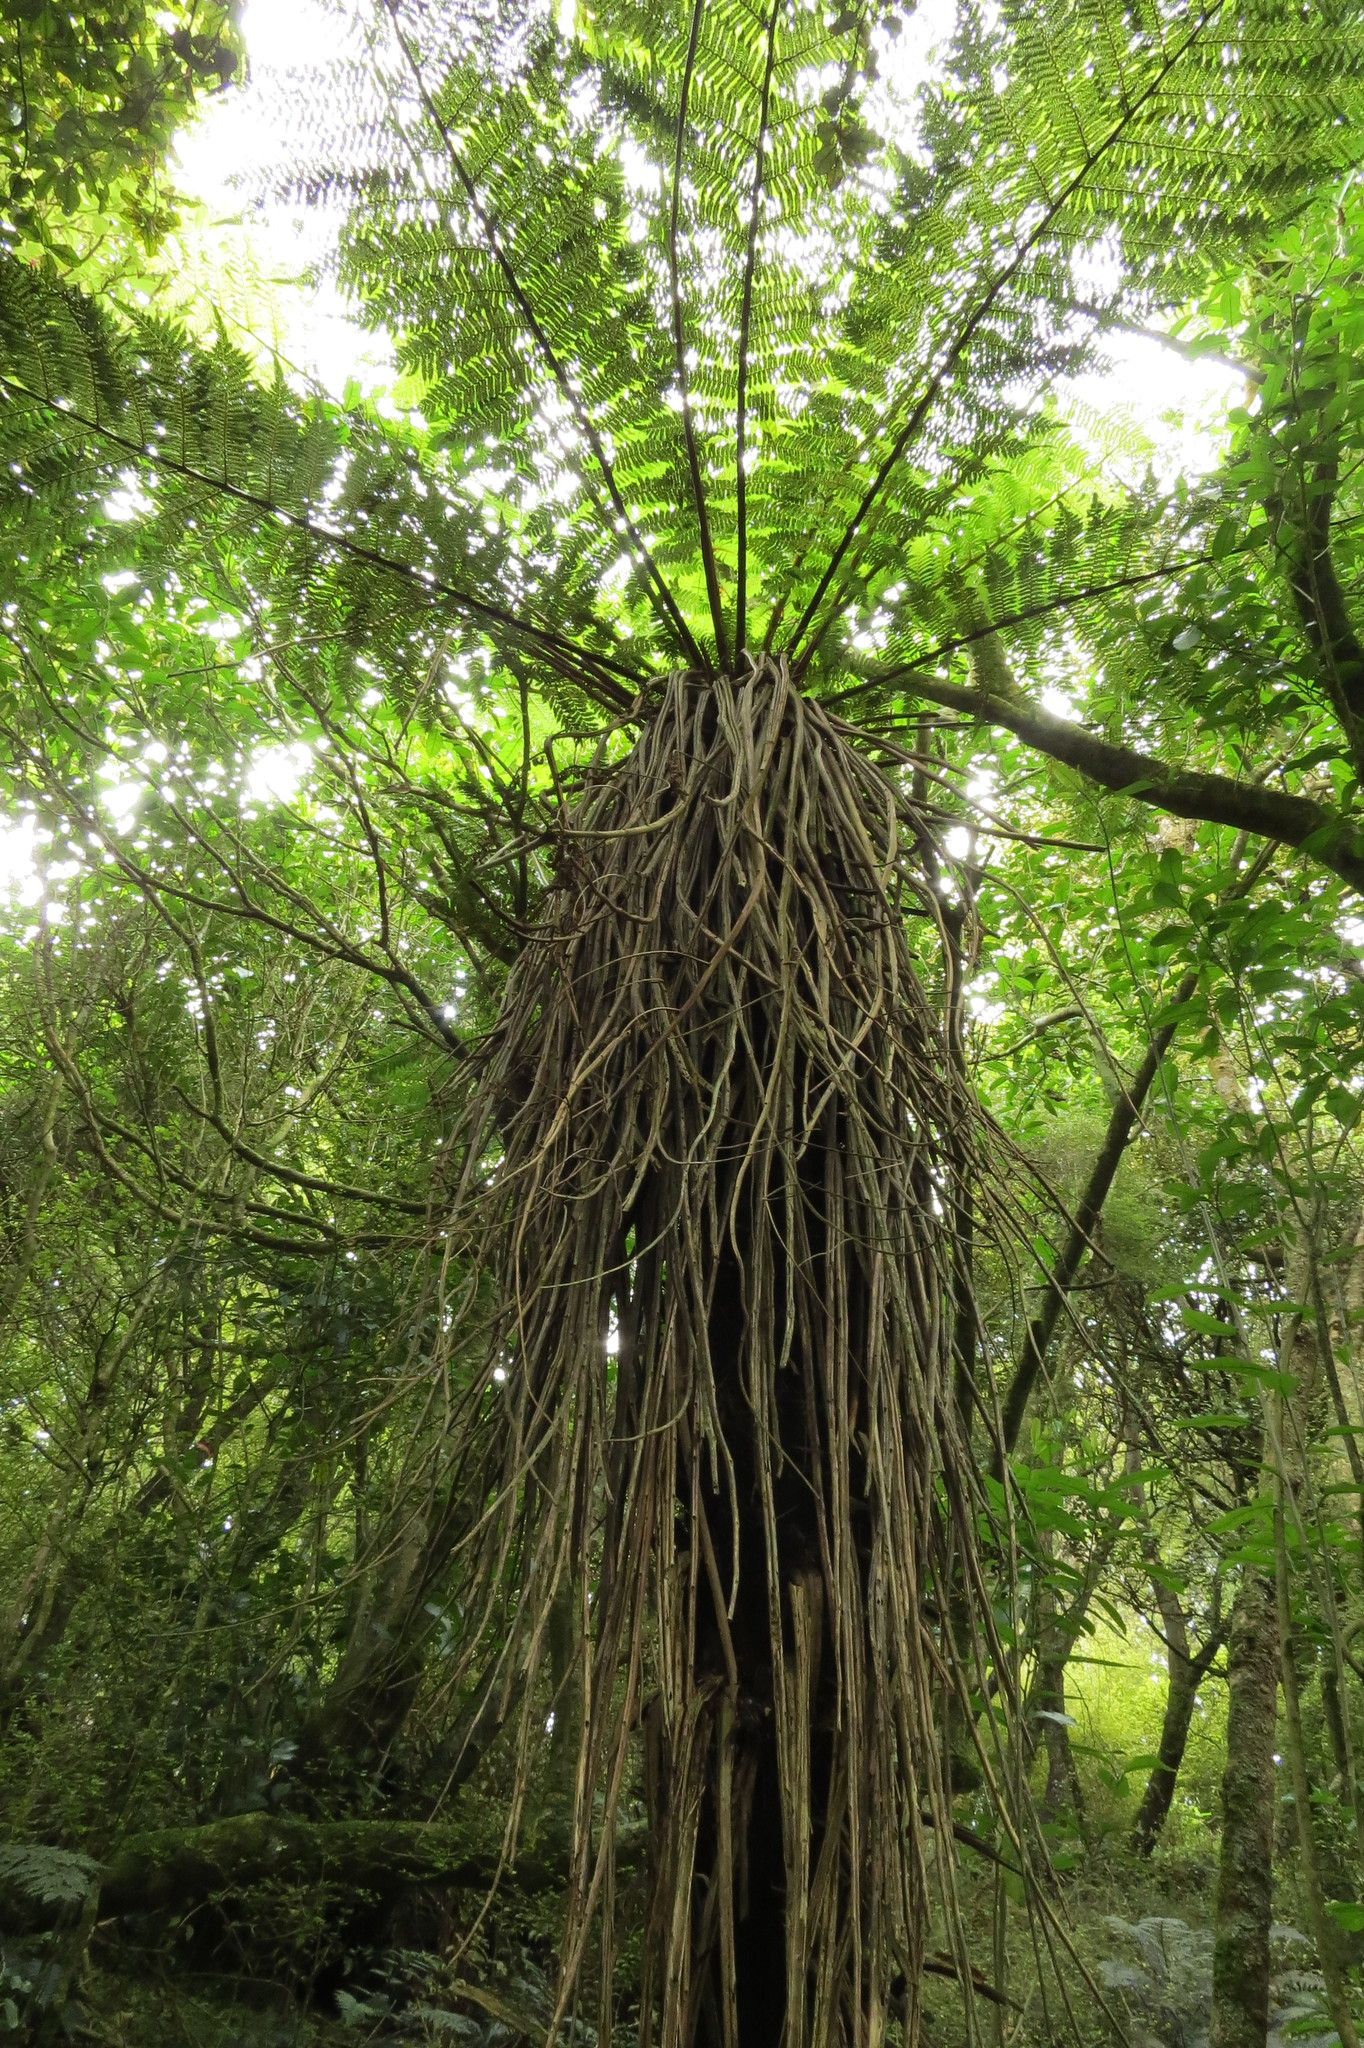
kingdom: Plantae
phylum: Tracheophyta
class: Polypodiopsida
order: Cyatheales
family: Cyatheaceae
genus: Alsophila
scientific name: Alsophila smithii
